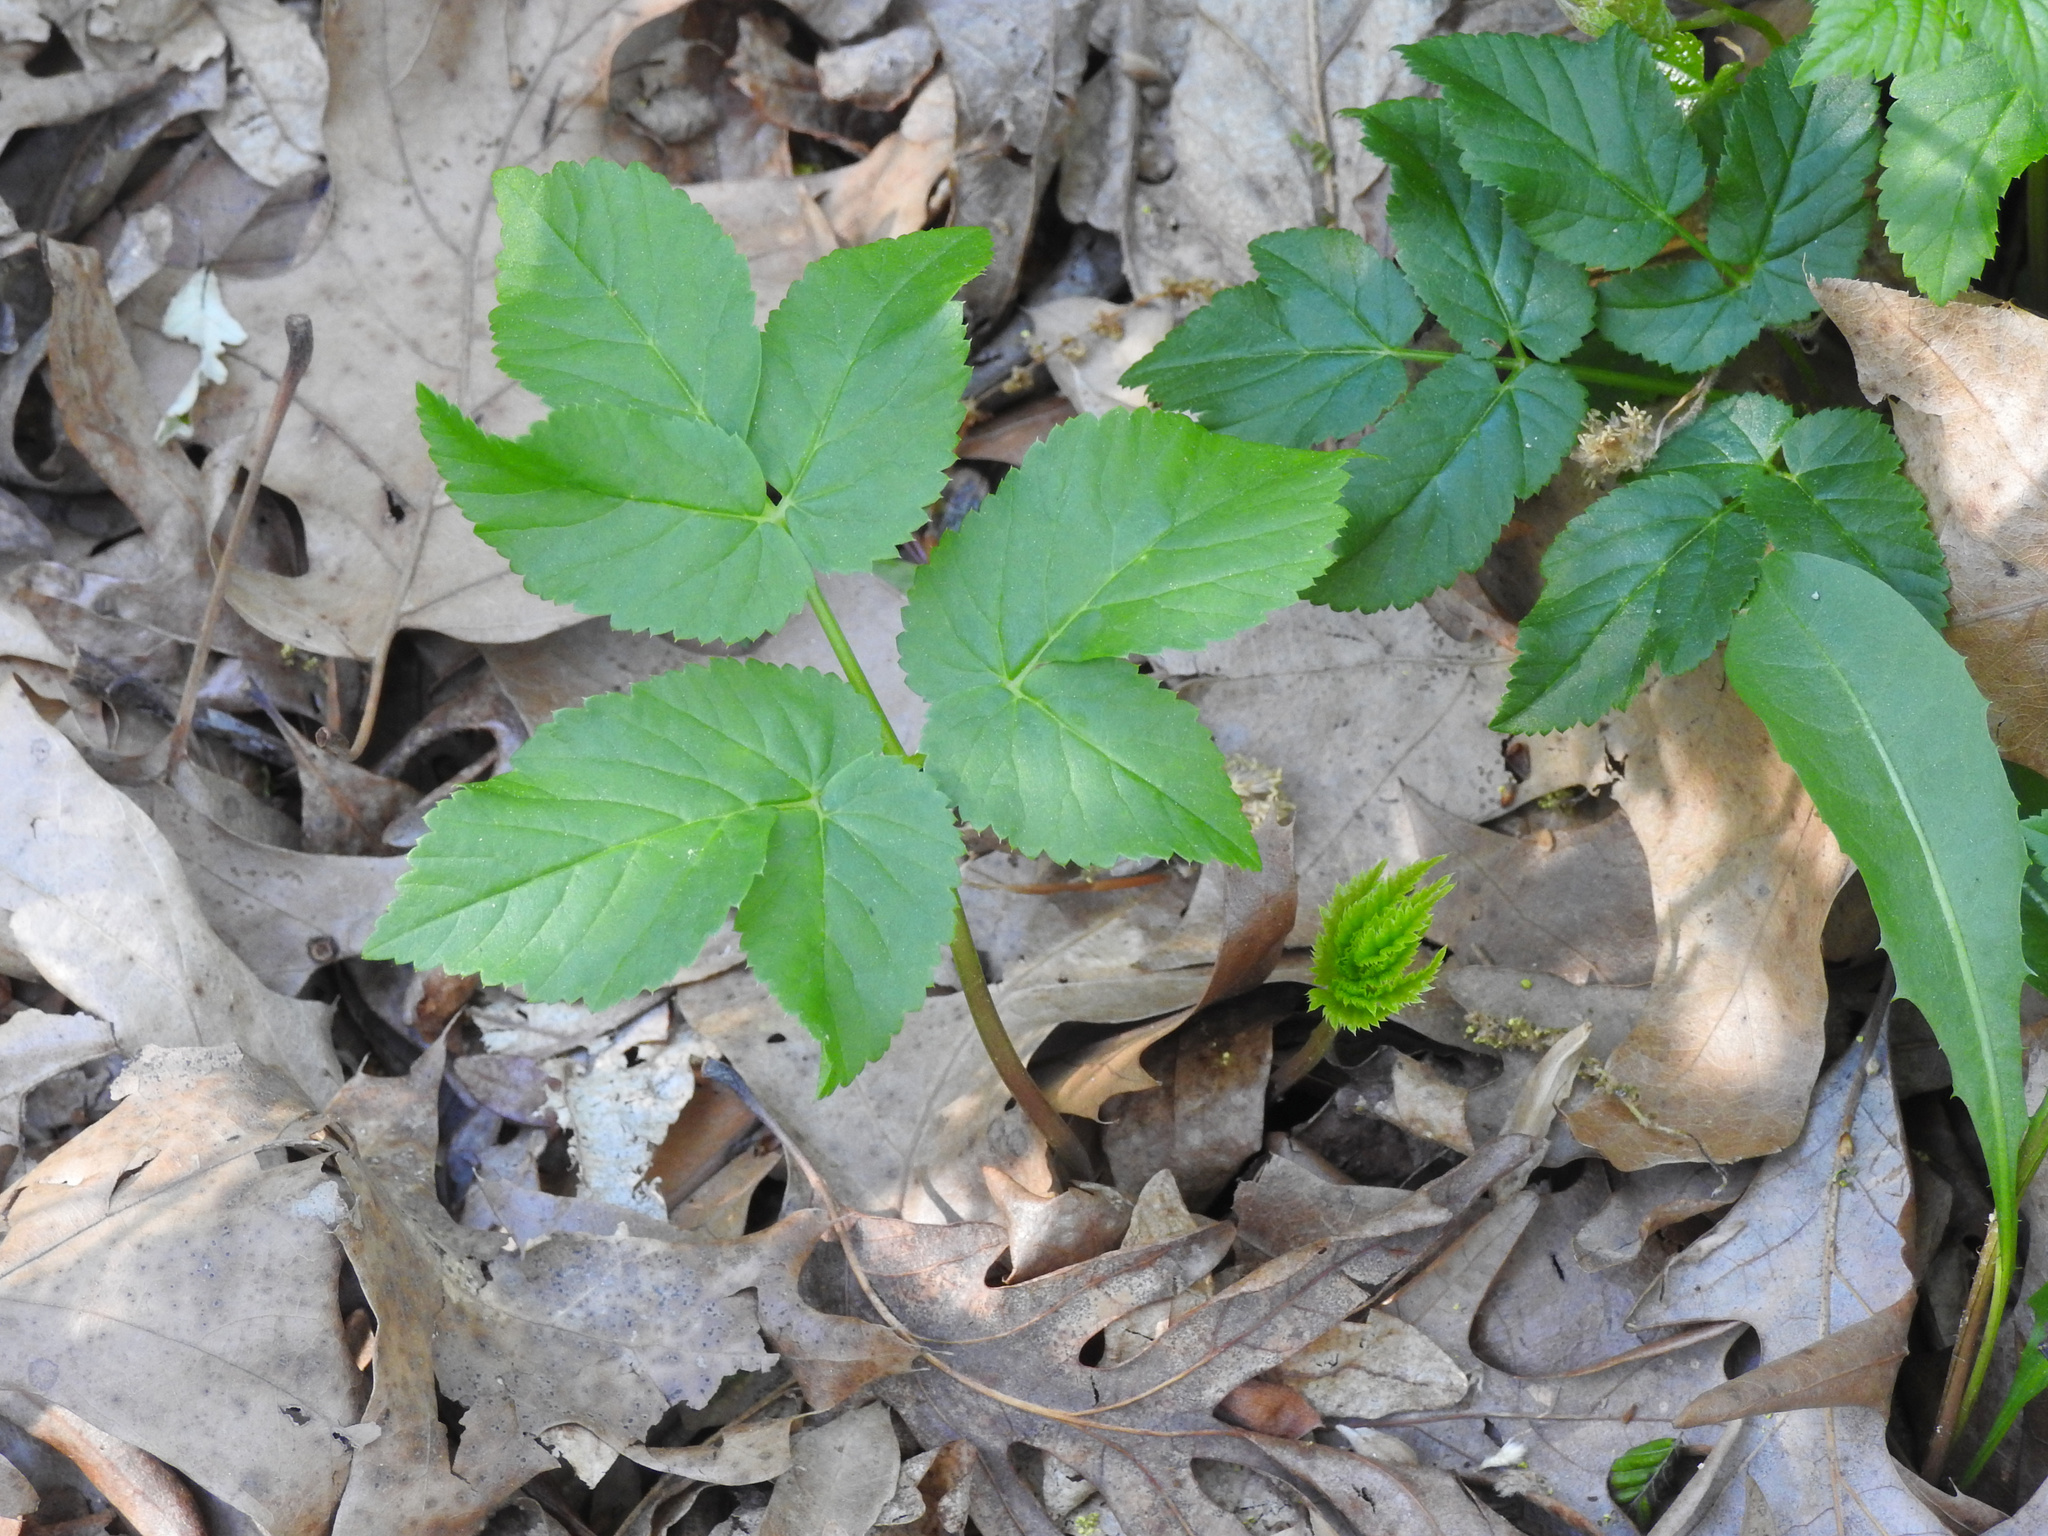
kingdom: Plantae
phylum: Tracheophyta
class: Magnoliopsida
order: Apiales
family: Apiaceae
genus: Aegopodium
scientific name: Aegopodium podagraria
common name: Ground-elder
